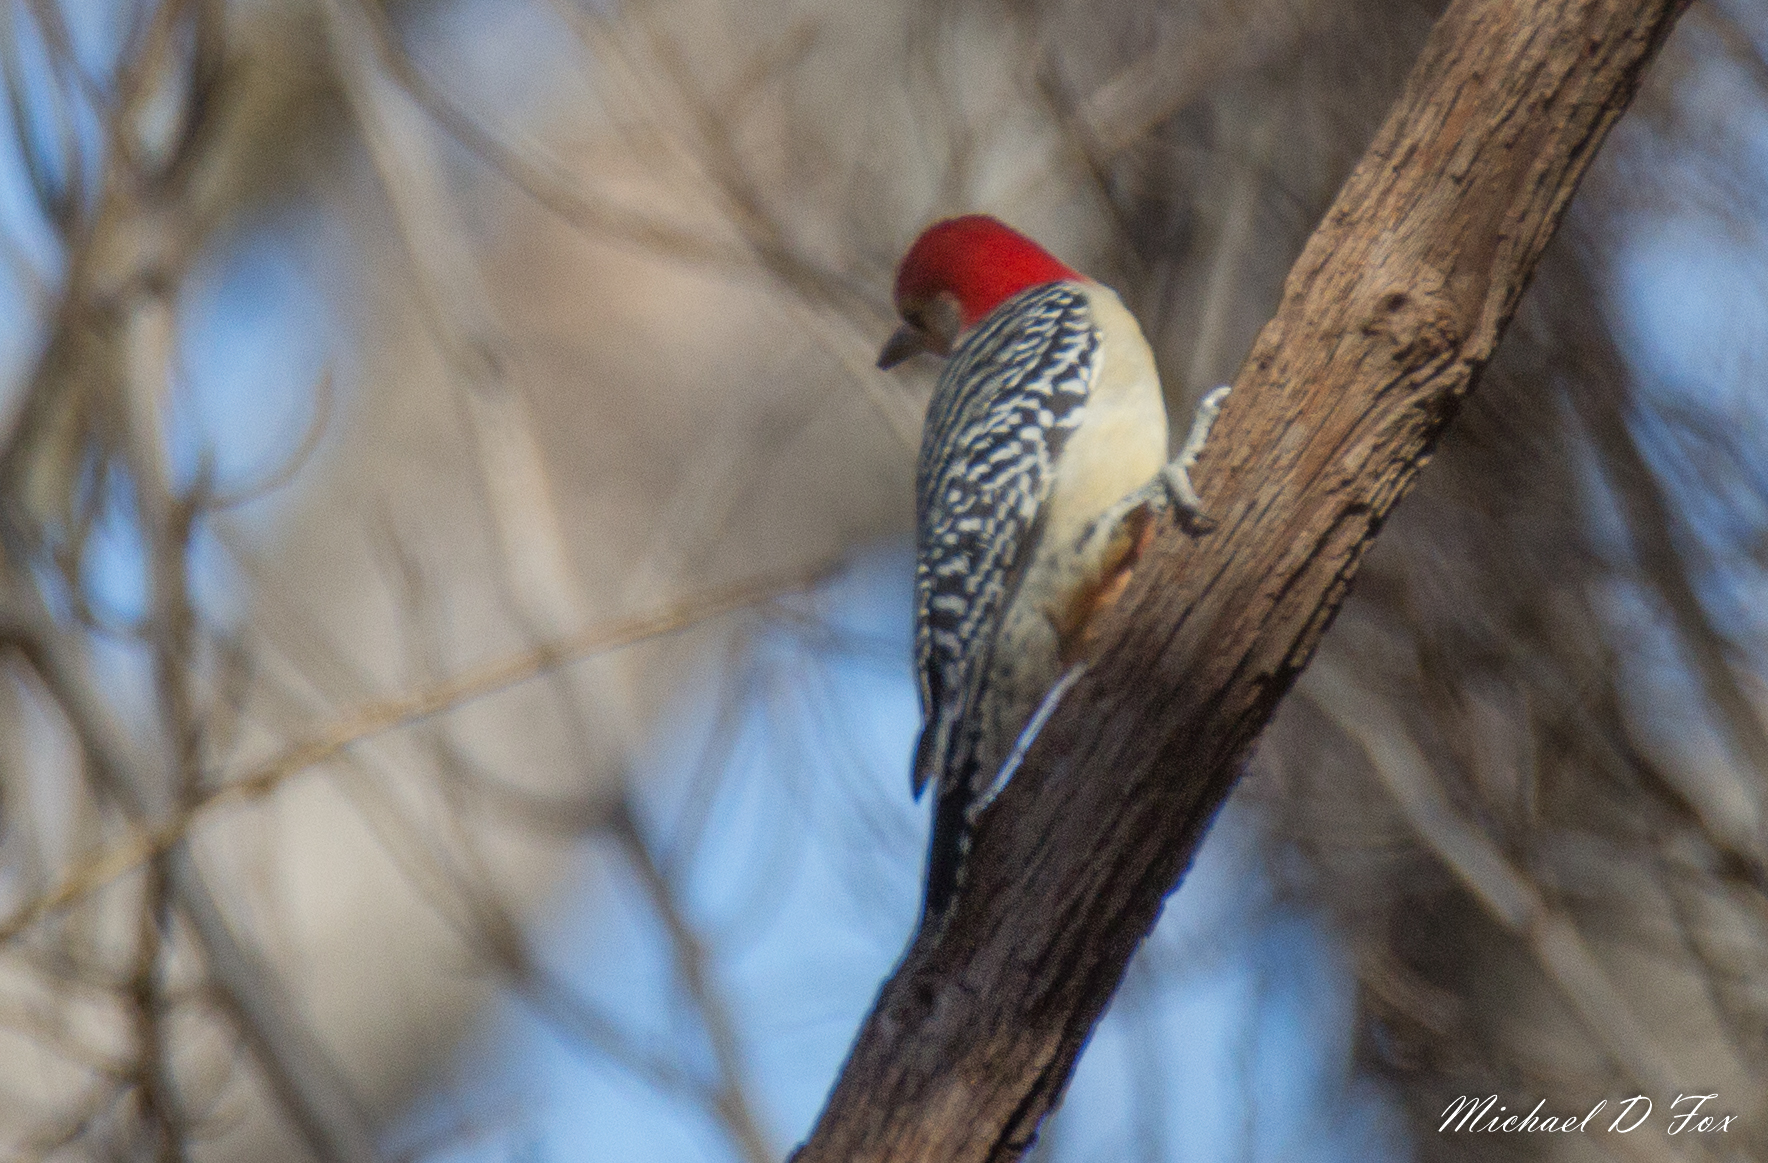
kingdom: Animalia
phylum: Chordata
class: Aves
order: Piciformes
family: Picidae
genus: Melanerpes
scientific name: Melanerpes carolinus
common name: Red-bellied woodpecker
